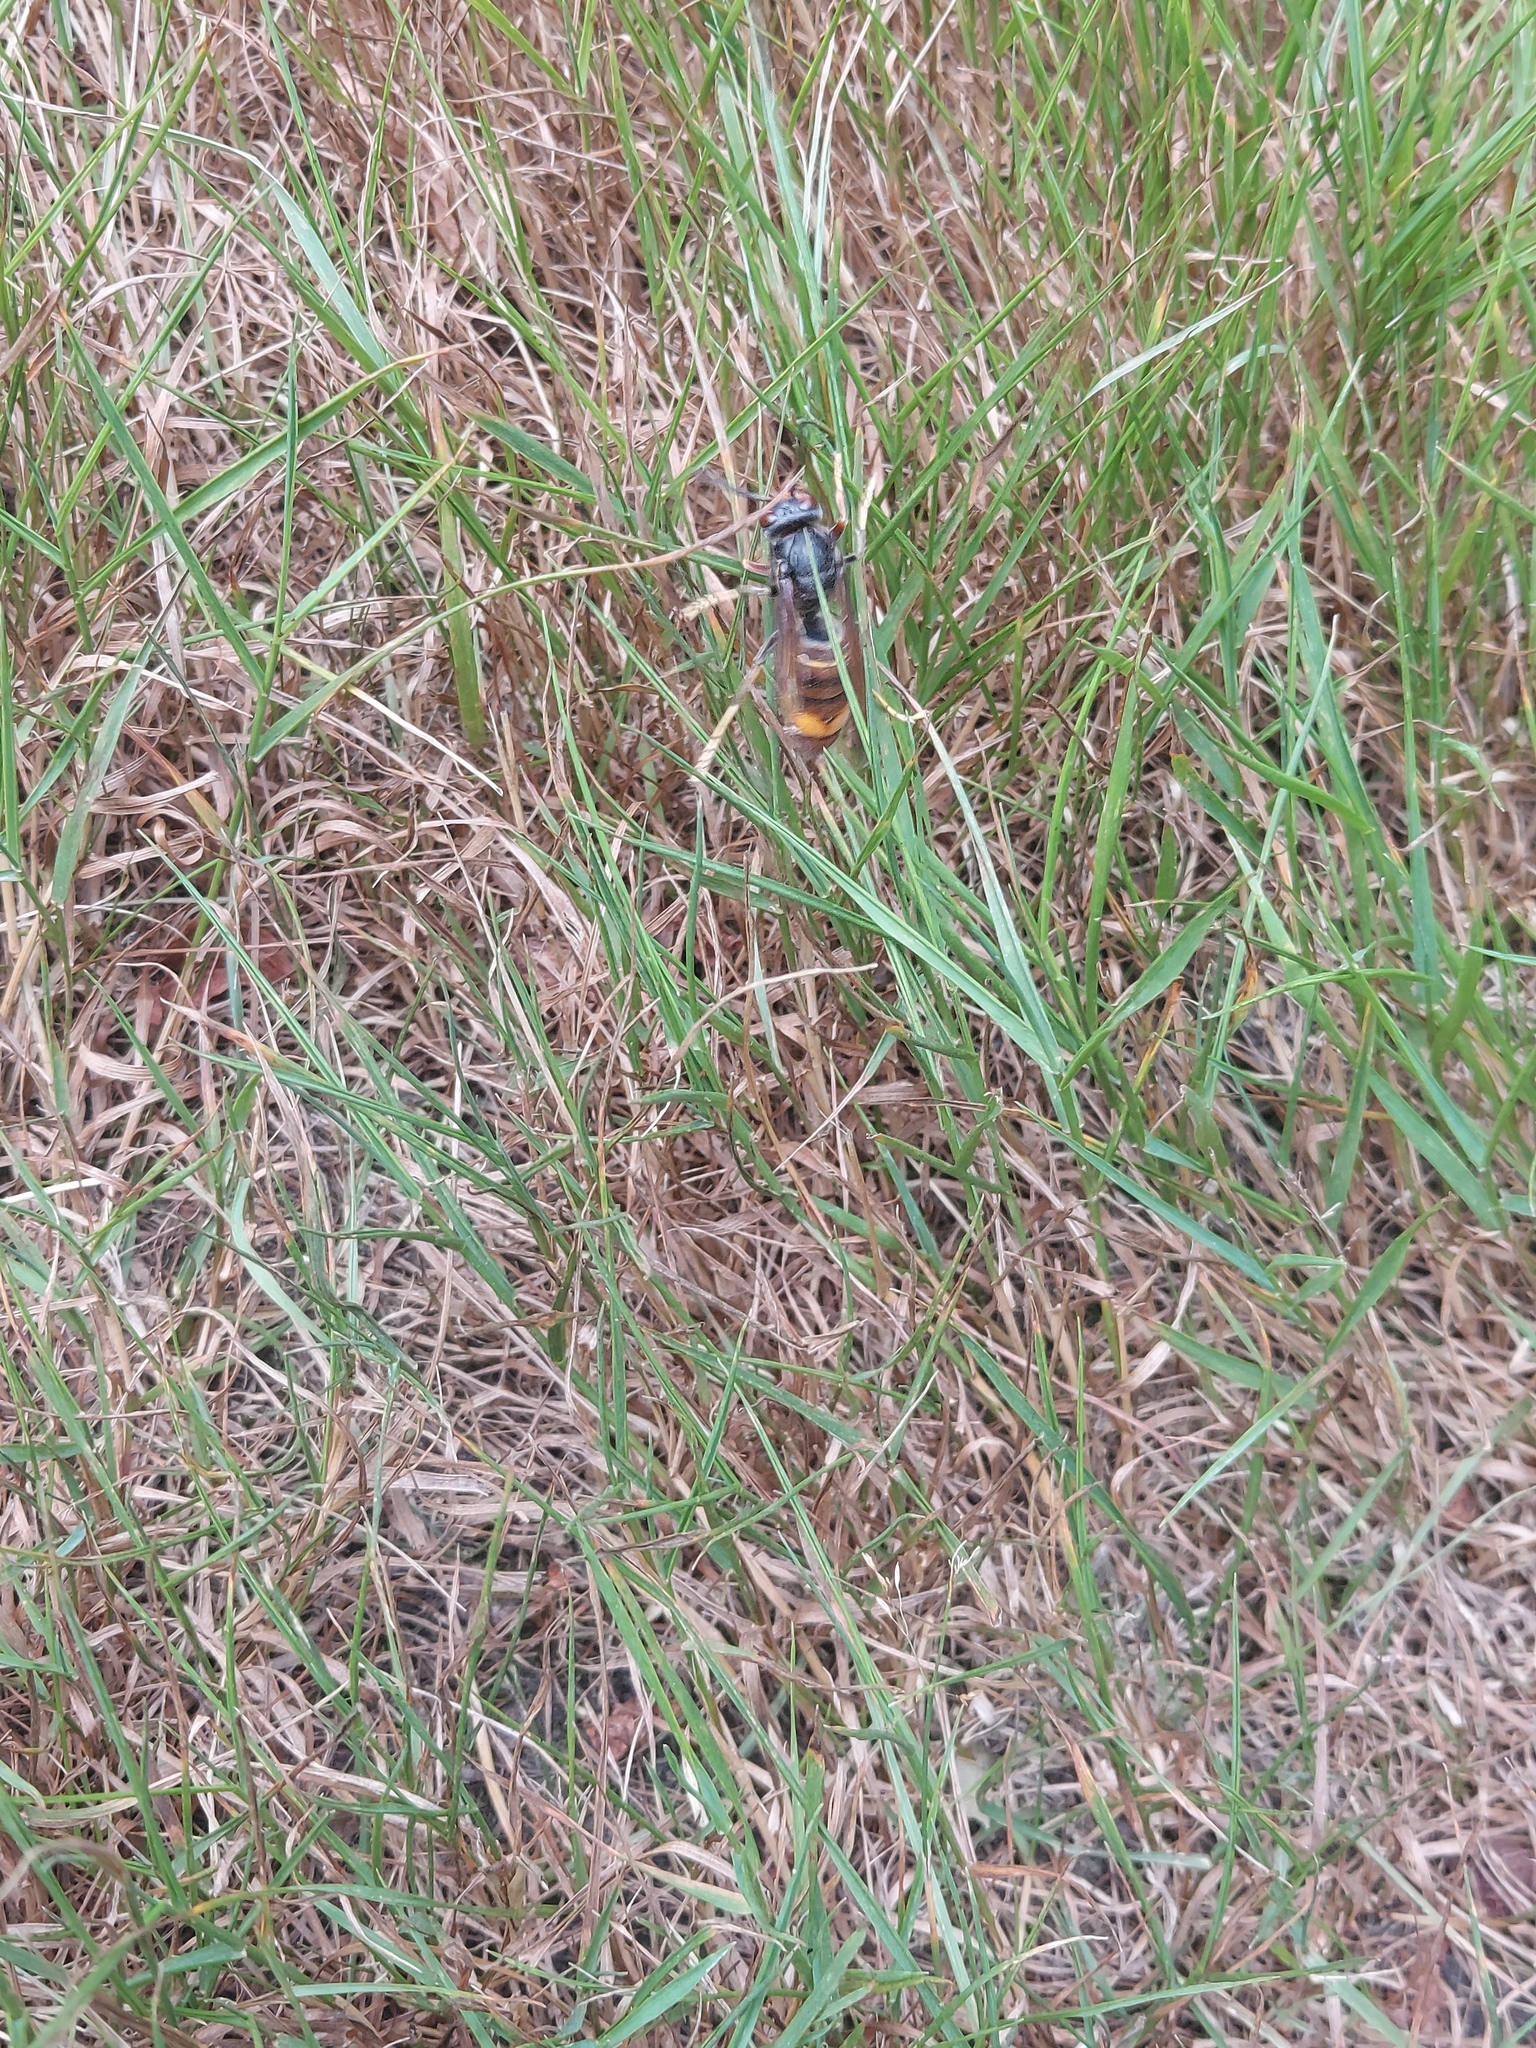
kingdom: Animalia
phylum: Arthropoda
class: Insecta
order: Hymenoptera
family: Vespidae
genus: Vespa
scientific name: Vespa velutina
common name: Asian hornet
